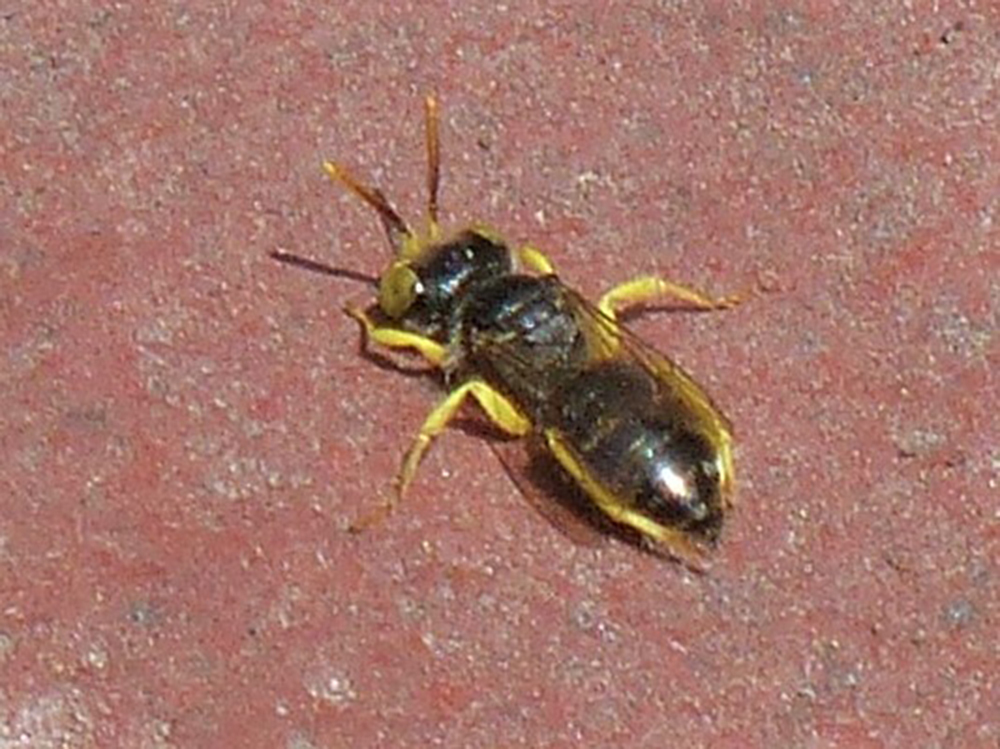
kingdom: Animalia
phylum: Arthropoda
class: Insecta
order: Hymenoptera
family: Andrenidae
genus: Calliopsis
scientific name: Calliopsis andreniformis
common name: Eastern calliopsis bee
